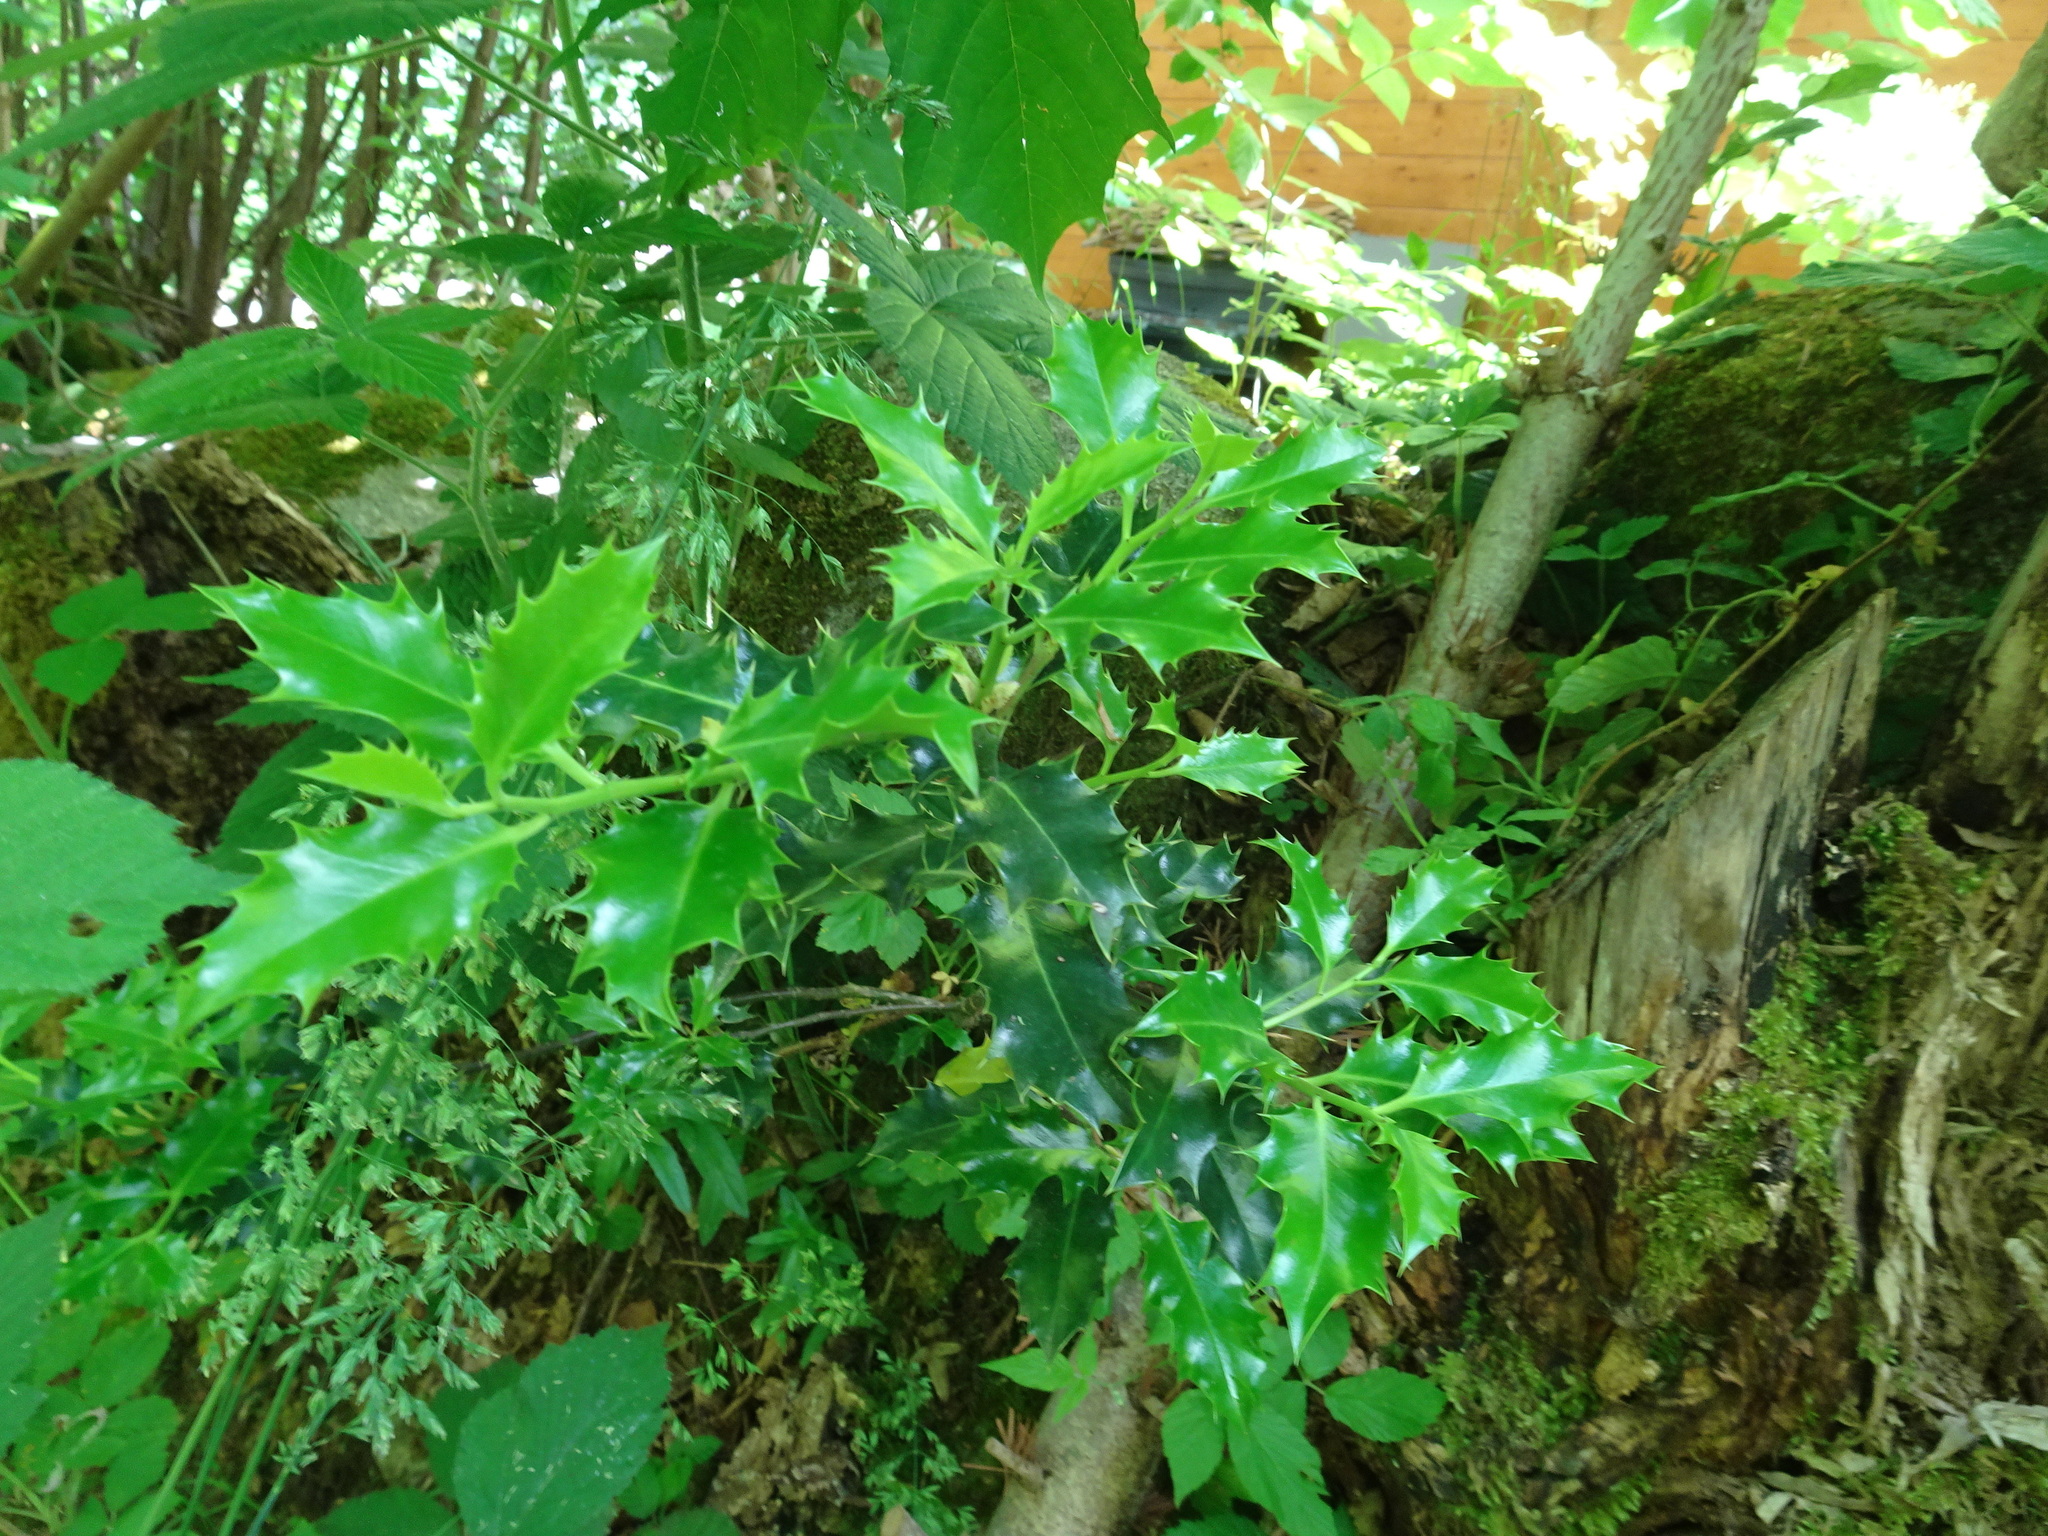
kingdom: Plantae
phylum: Tracheophyta
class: Magnoliopsida
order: Aquifoliales
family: Aquifoliaceae
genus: Ilex
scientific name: Ilex aquifolium
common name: English holly
